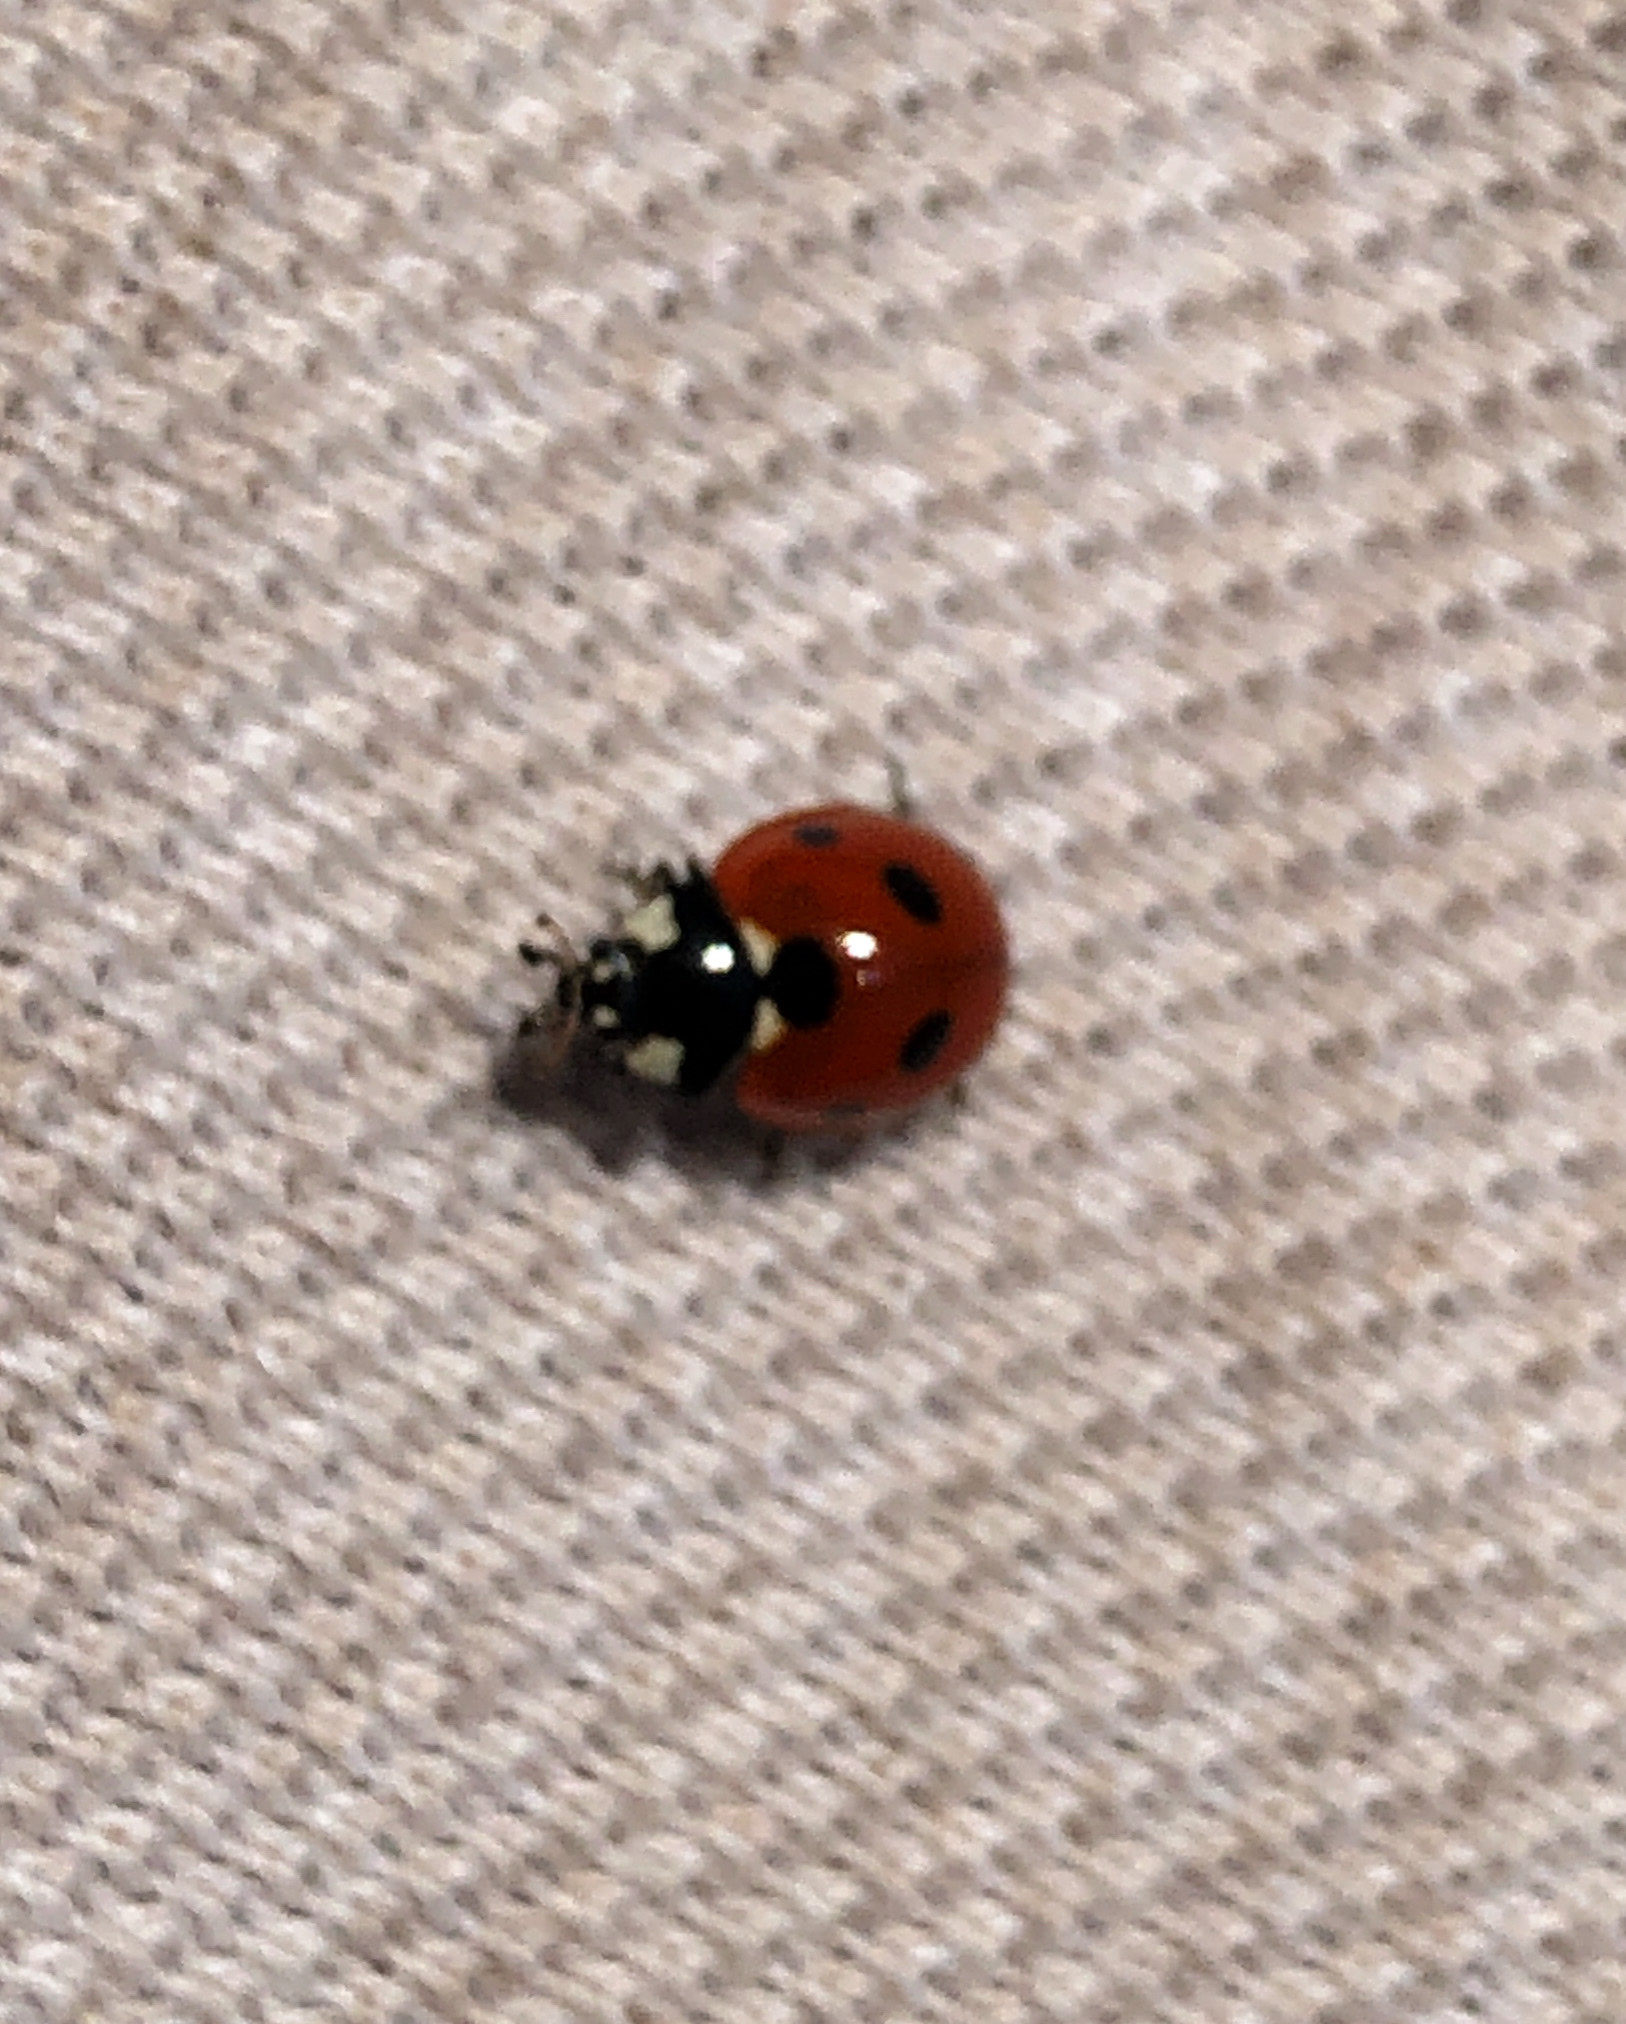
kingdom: Animalia
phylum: Arthropoda
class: Insecta
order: Coleoptera
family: Coccinellidae
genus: Coccinella
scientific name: Coccinella septempunctata
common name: Sevenspotted lady beetle
